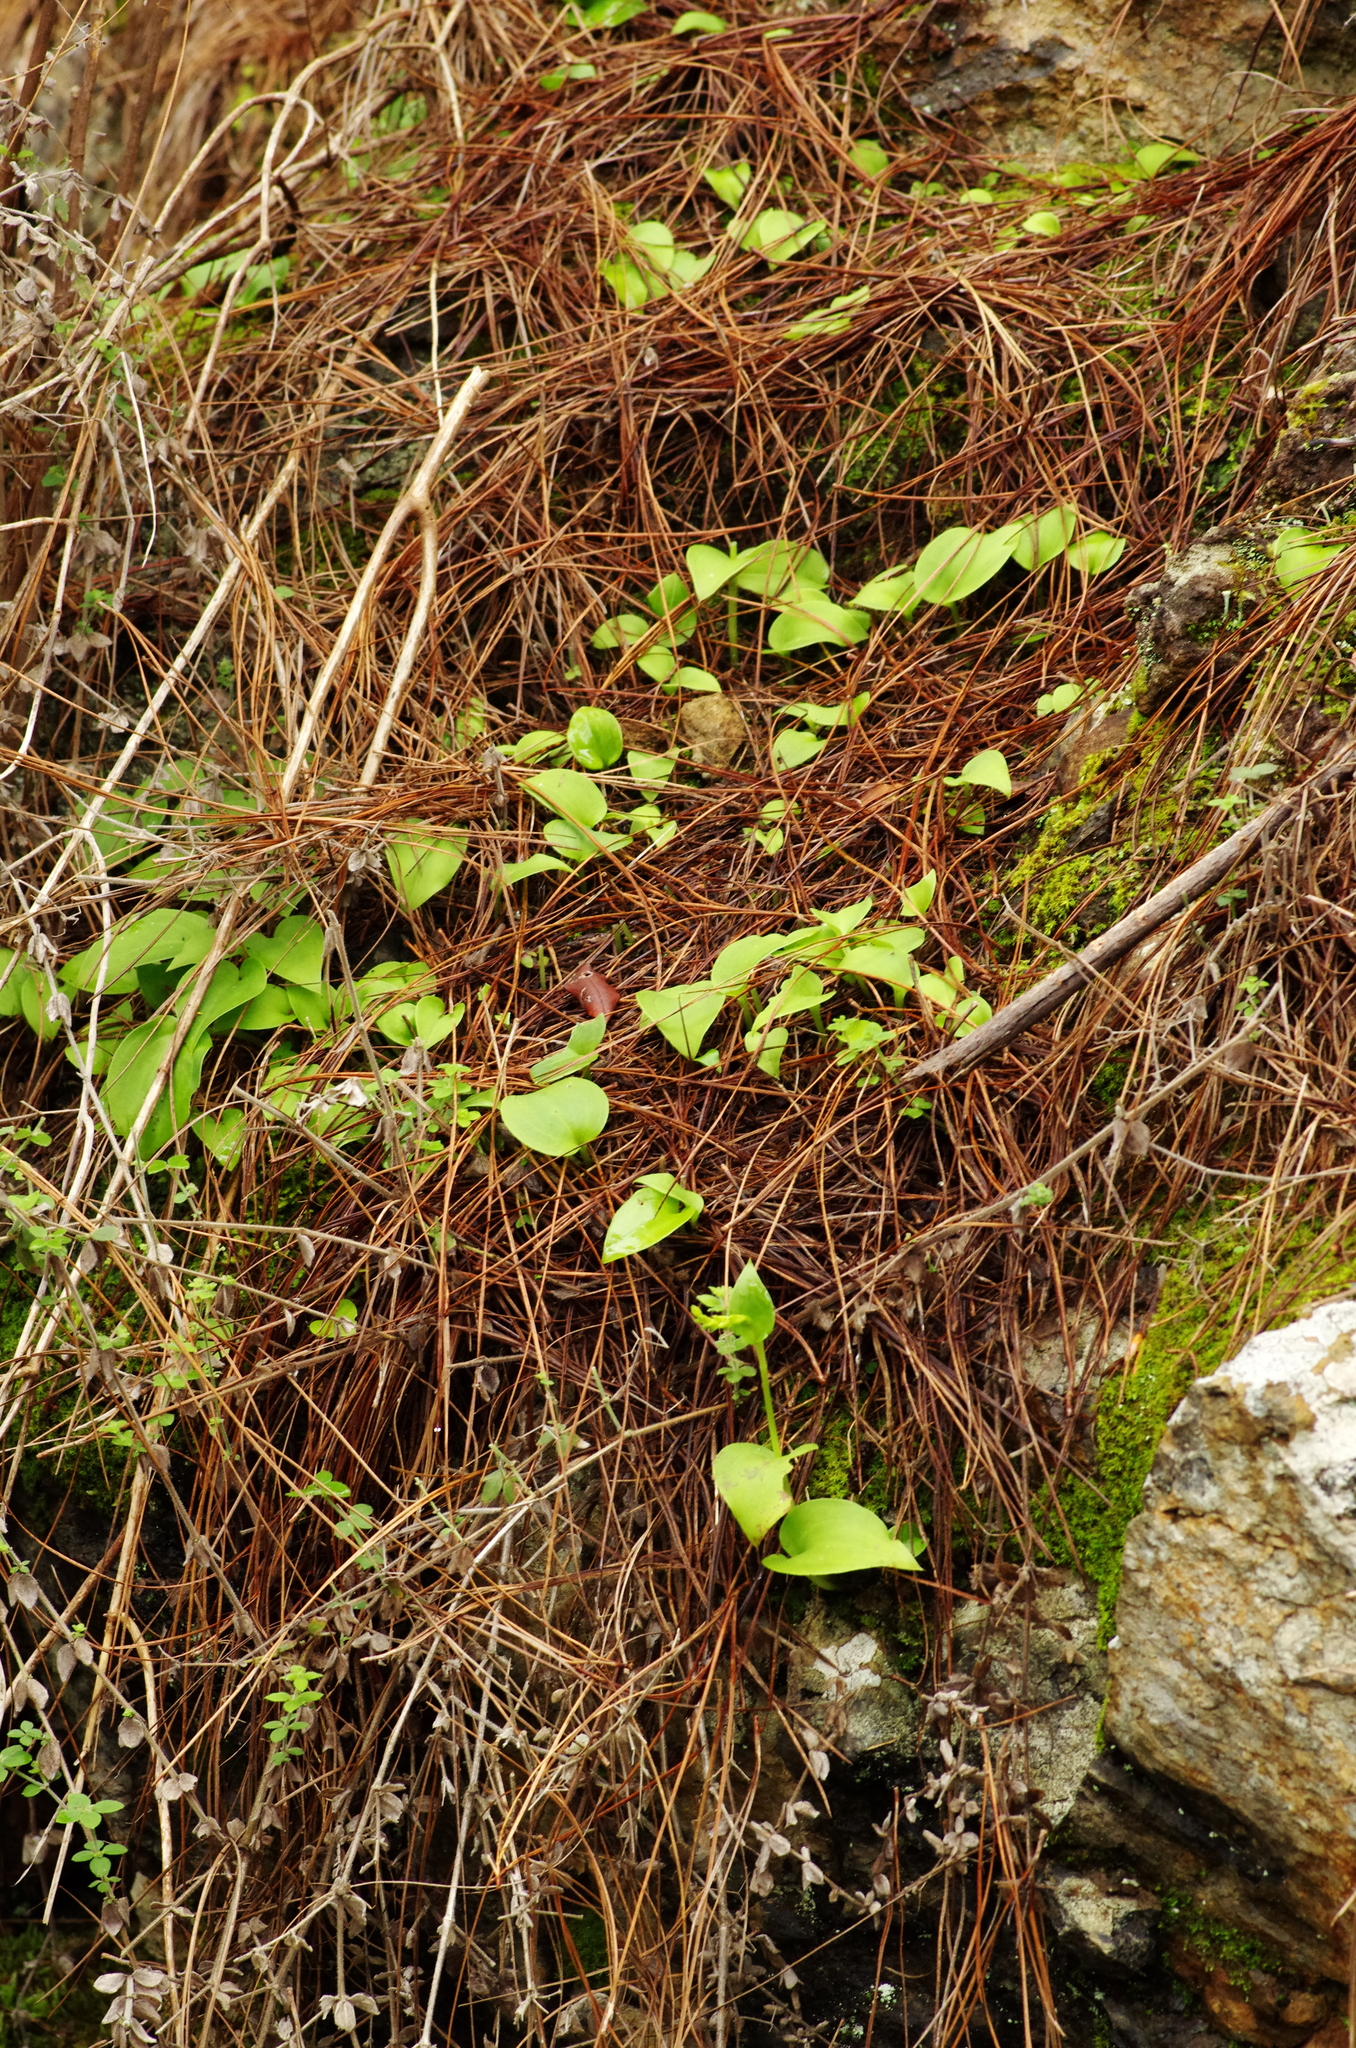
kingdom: Plantae
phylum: Tracheophyta
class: Liliopsida
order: Asparagales
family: Orchidaceae
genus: Gennaria
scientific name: Gennaria diphylla
